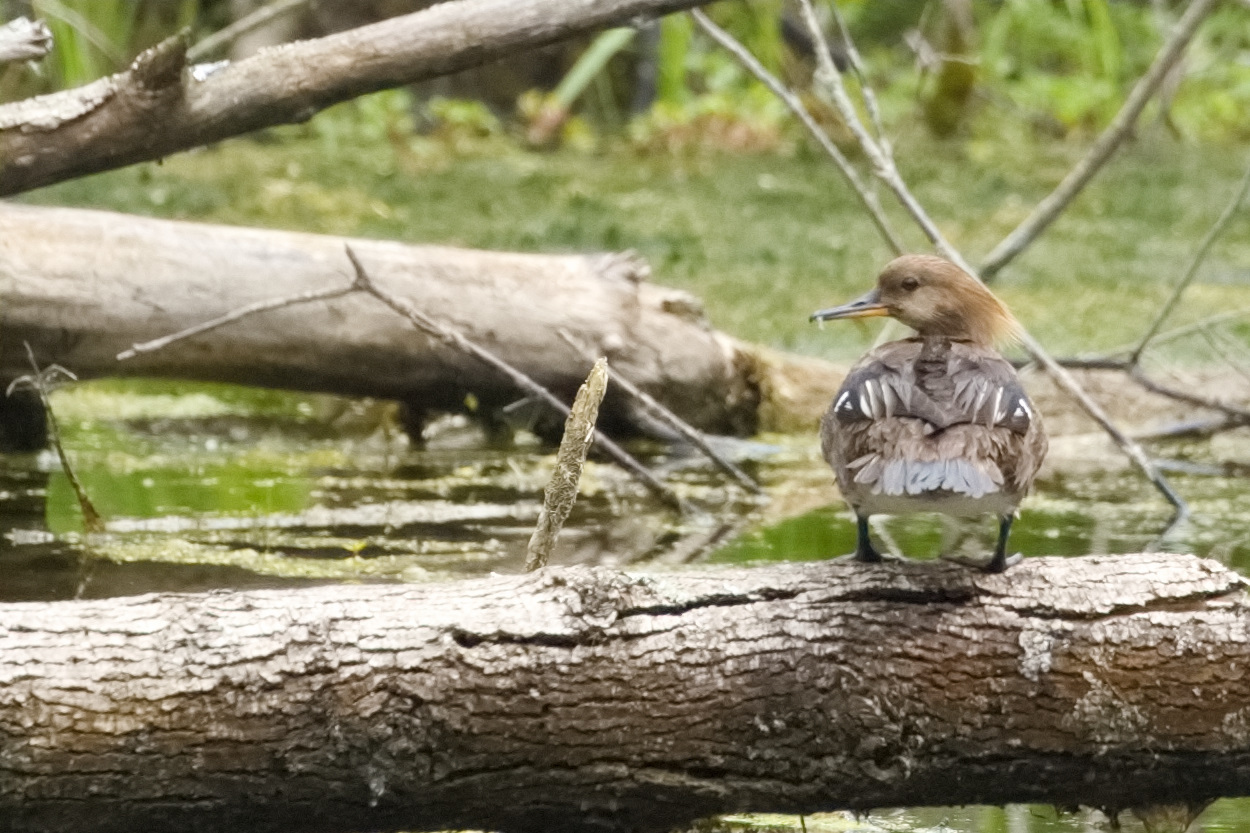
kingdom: Animalia
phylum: Chordata
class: Aves
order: Anseriformes
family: Anatidae
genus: Lophodytes
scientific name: Lophodytes cucullatus
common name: Hooded merganser
